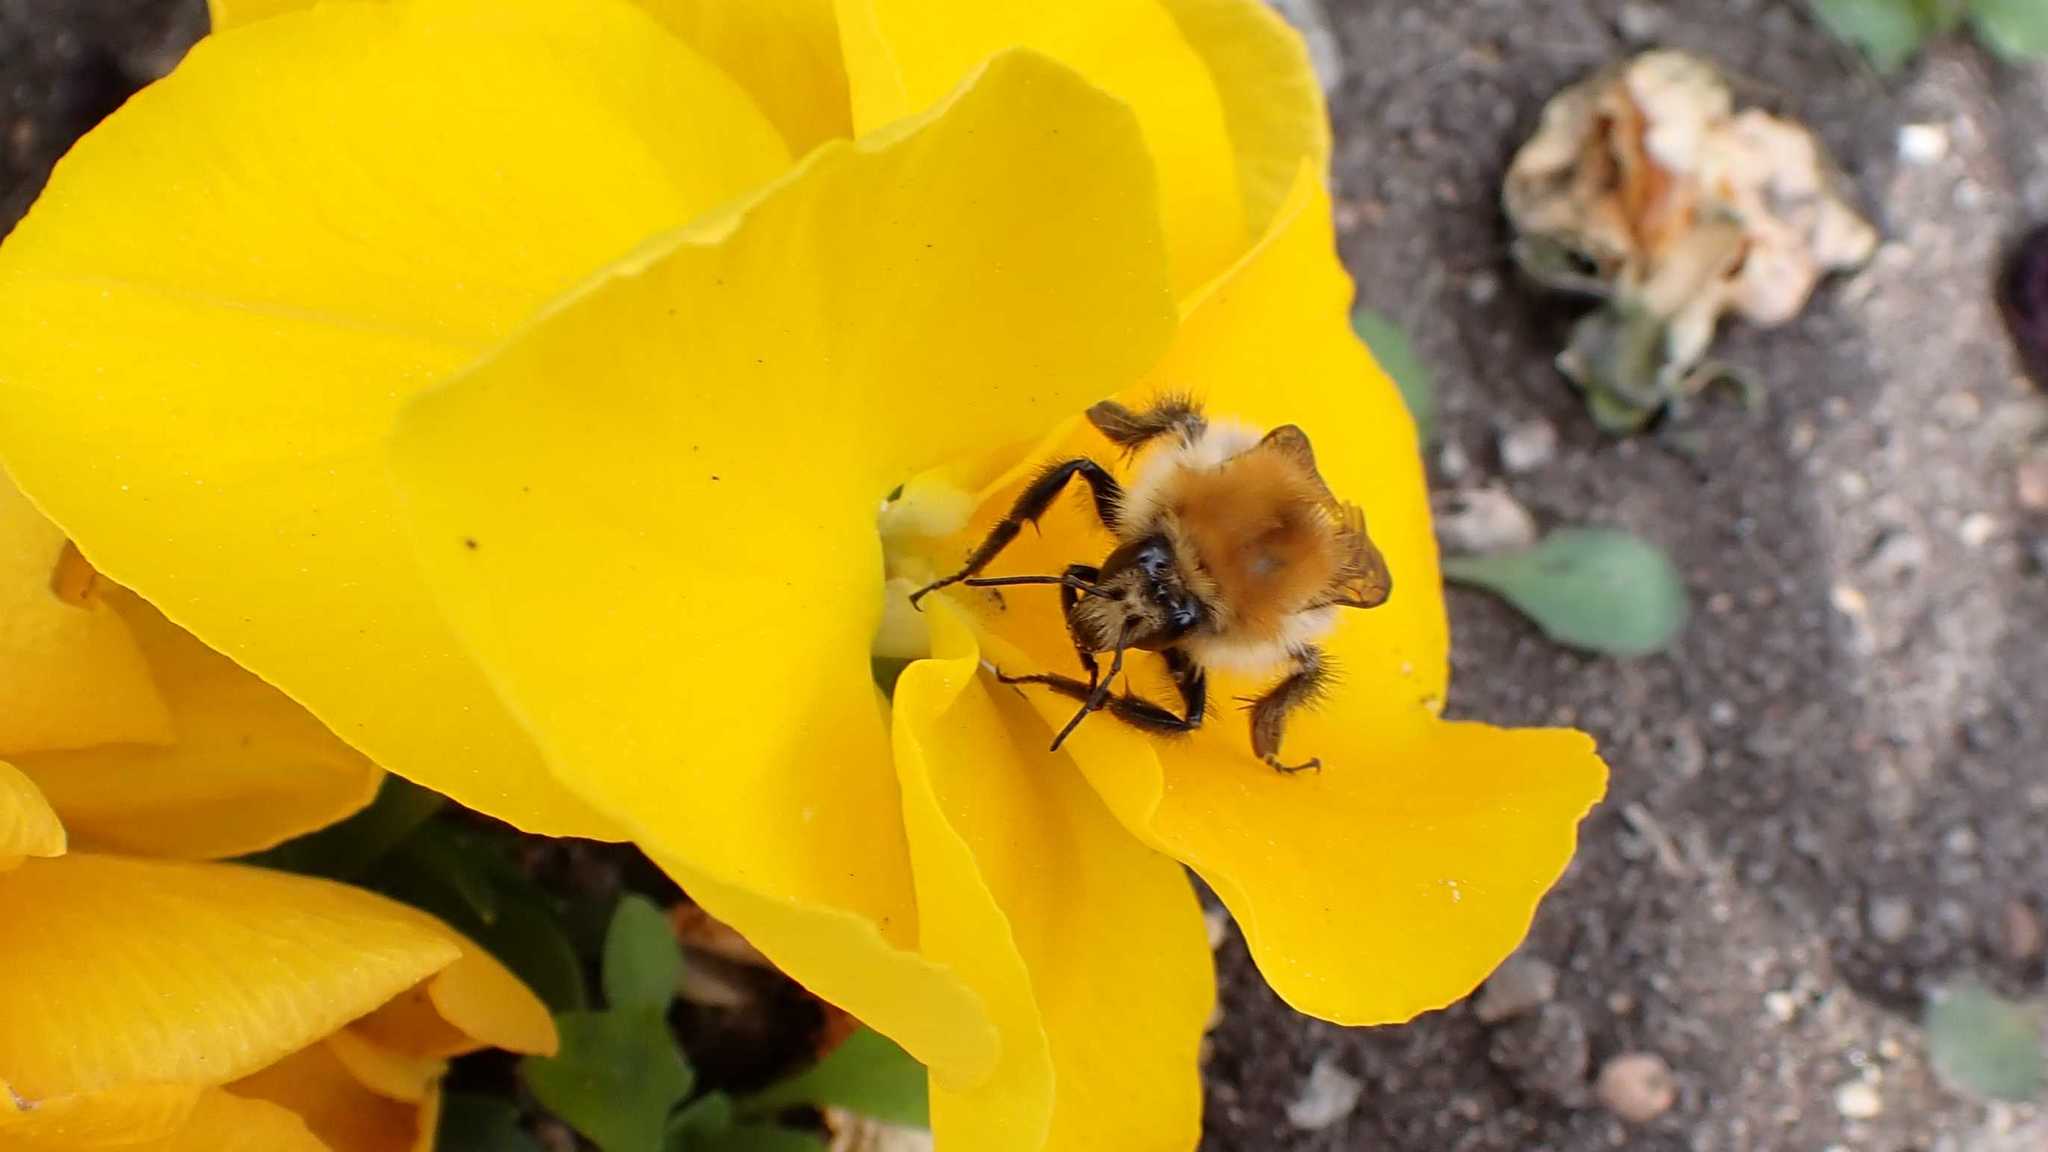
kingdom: Animalia
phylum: Arthropoda
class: Insecta
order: Hymenoptera
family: Apidae
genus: Bombus
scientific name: Bombus pascuorum
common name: Common carder bee
